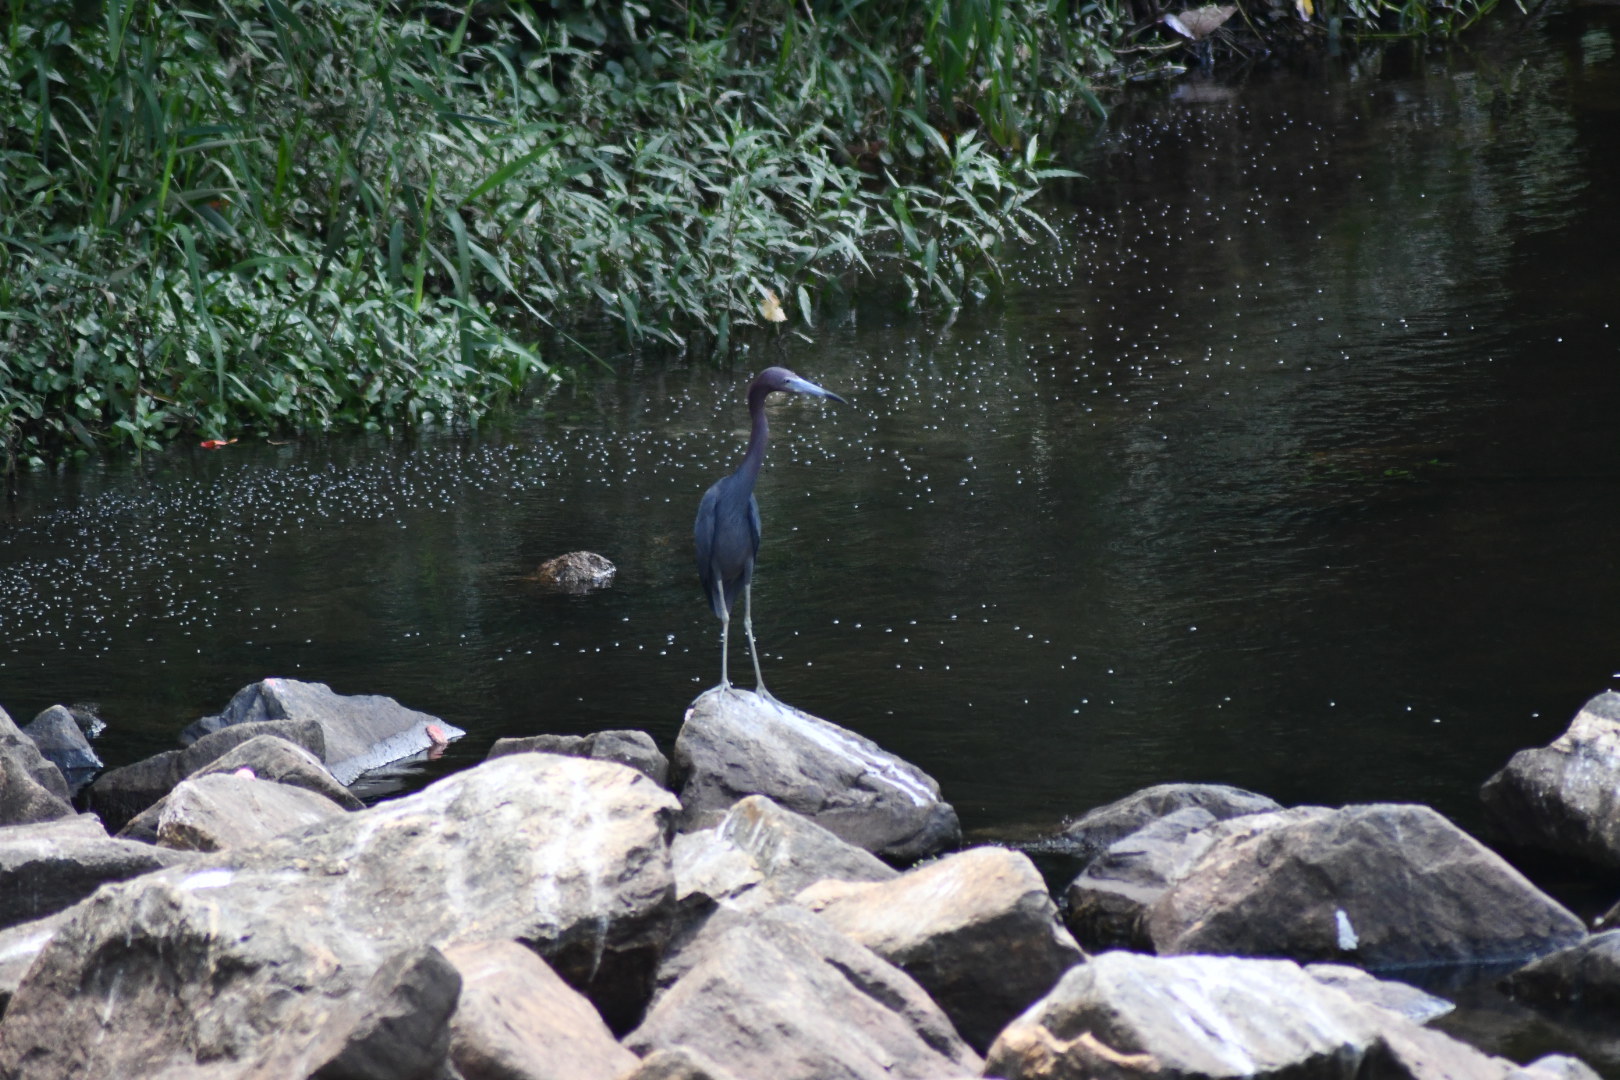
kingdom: Animalia
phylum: Chordata
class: Aves
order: Pelecaniformes
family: Ardeidae
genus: Egretta
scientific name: Egretta caerulea
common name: Little blue heron
